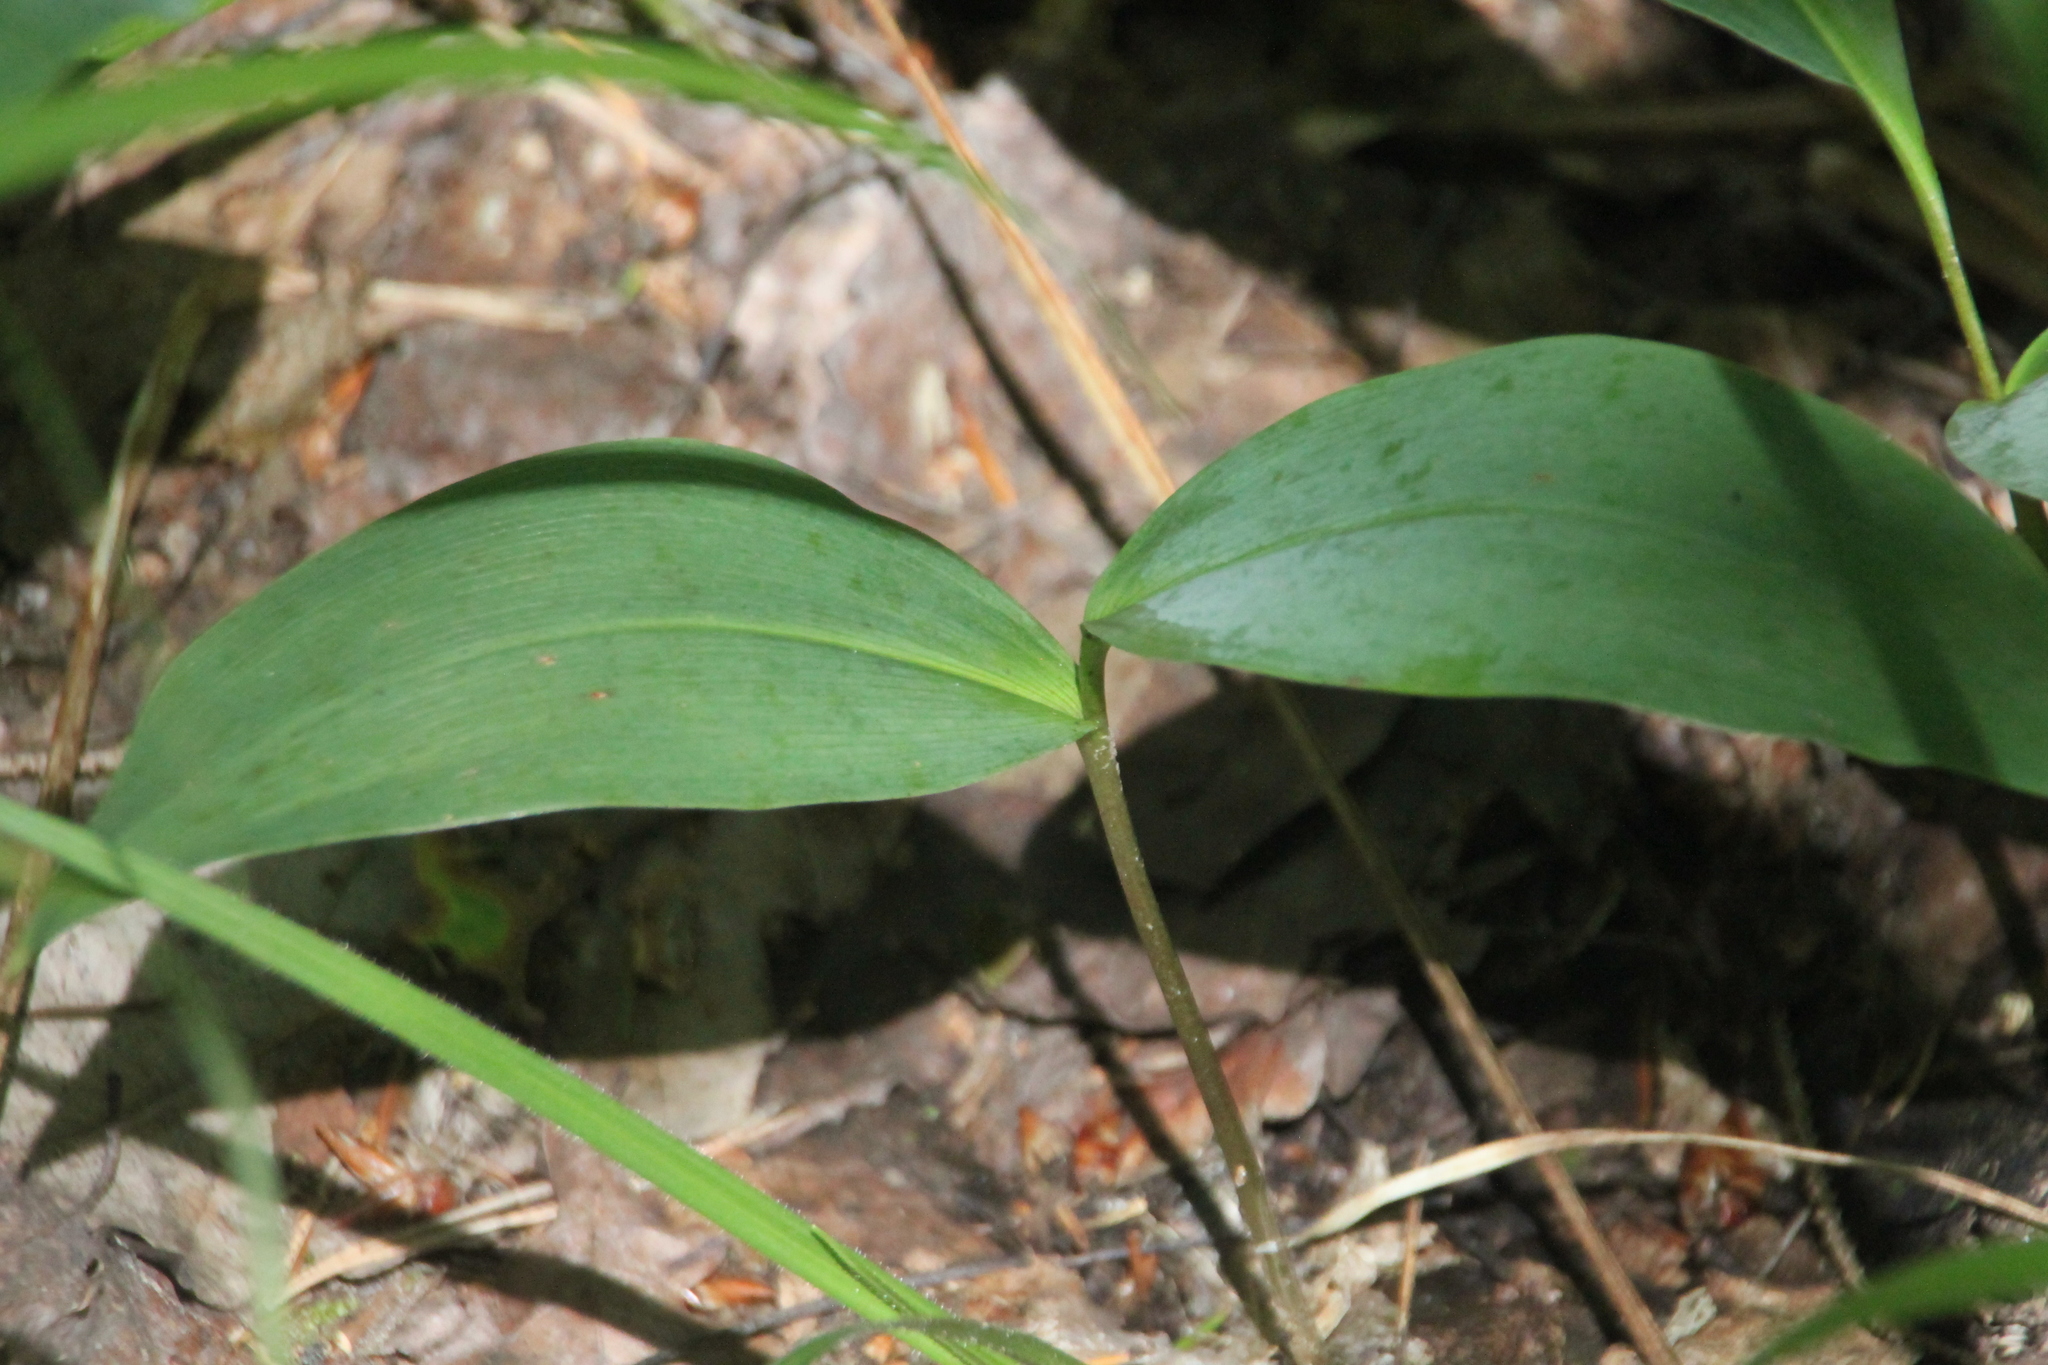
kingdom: Plantae
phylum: Tracheophyta
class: Liliopsida
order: Asparagales
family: Asparagaceae
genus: Convallaria
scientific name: Convallaria majalis
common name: Lily-of-the-valley
